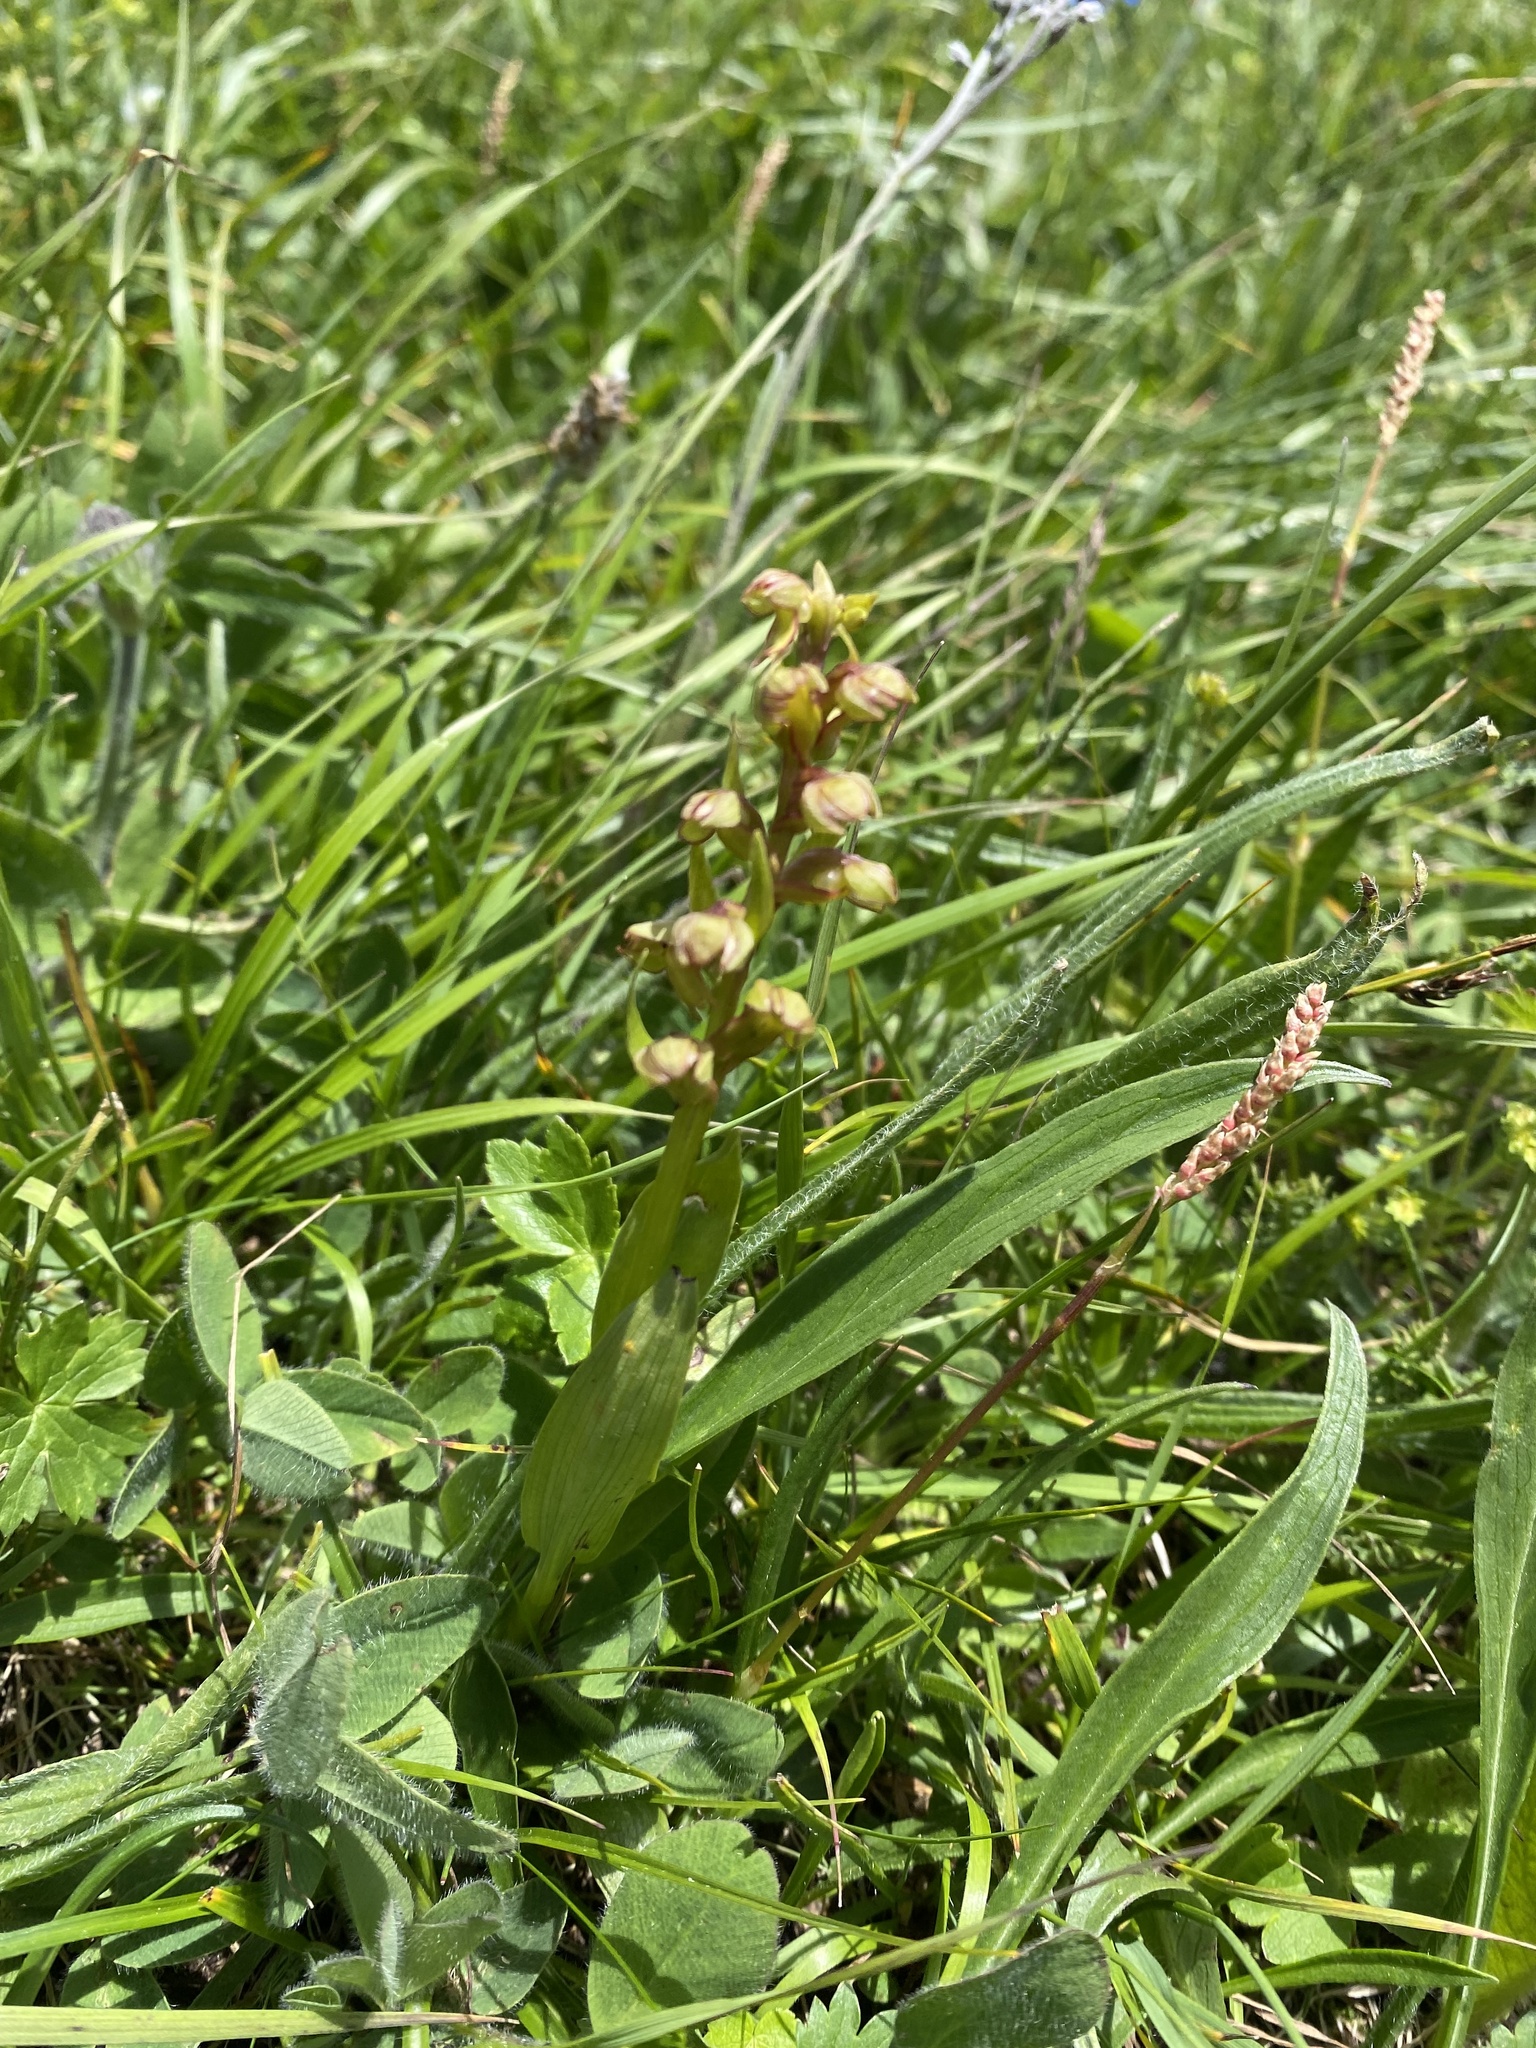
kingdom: Plantae
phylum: Tracheophyta
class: Liliopsida
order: Asparagales
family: Orchidaceae
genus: Dactylorhiza
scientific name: Dactylorhiza viridis
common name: Longbract frog orchid
